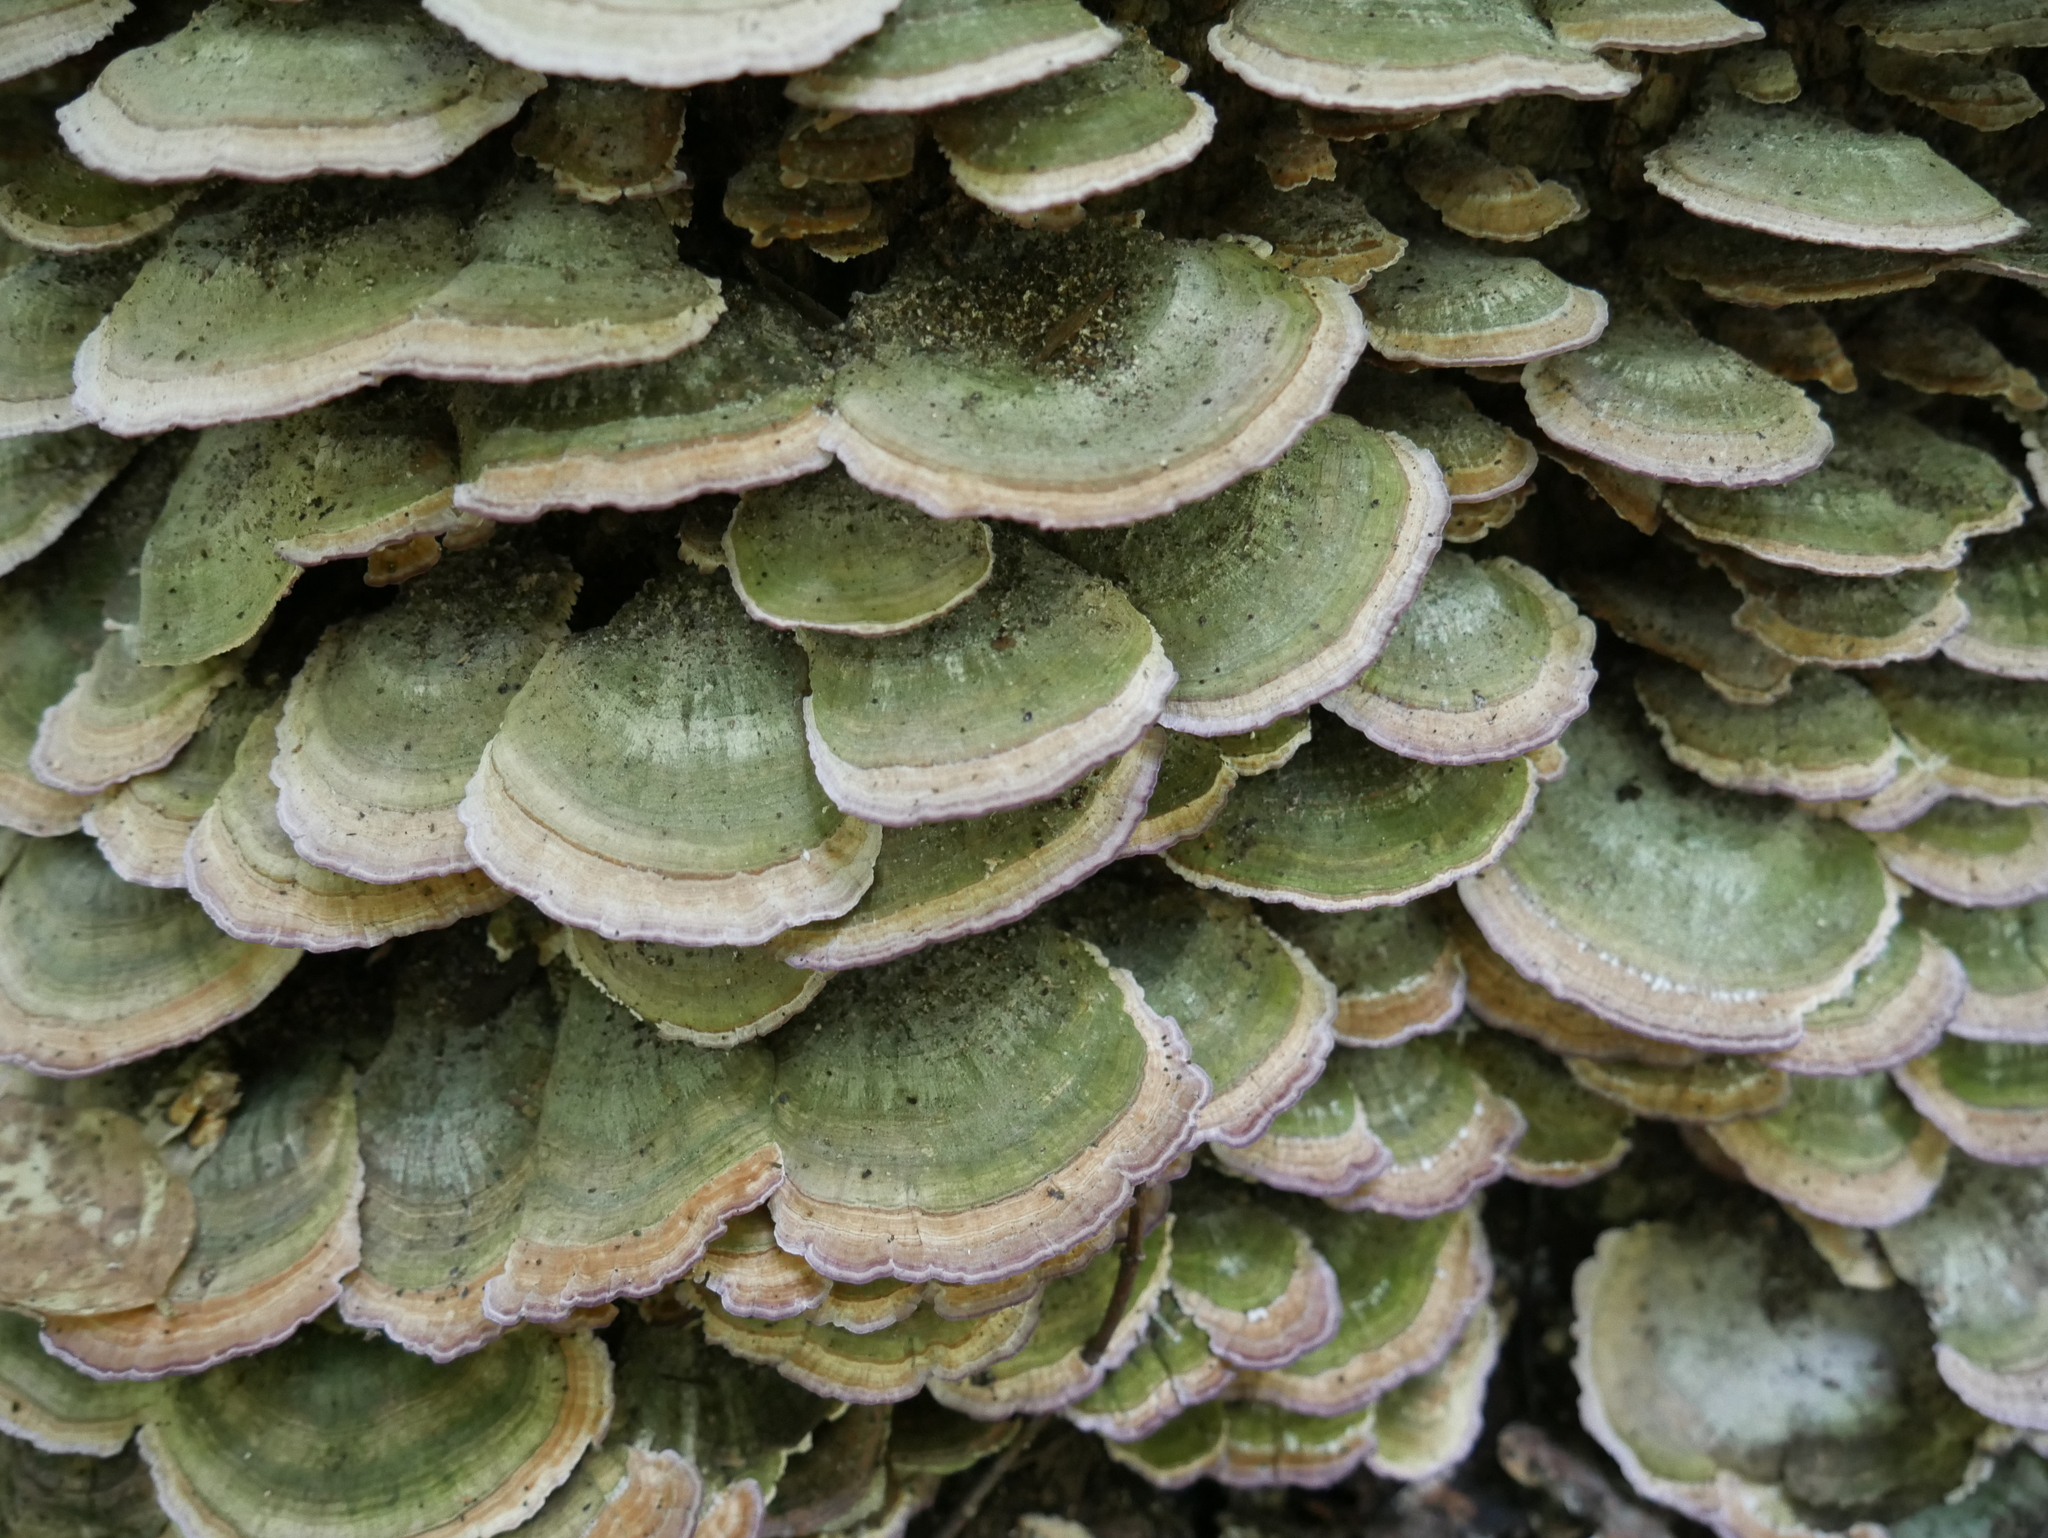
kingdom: Fungi
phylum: Basidiomycota
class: Agaricomycetes
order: Hymenochaetales
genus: Trichaptum
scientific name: Trichaptum biforme
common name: Violet-toothed polypore
